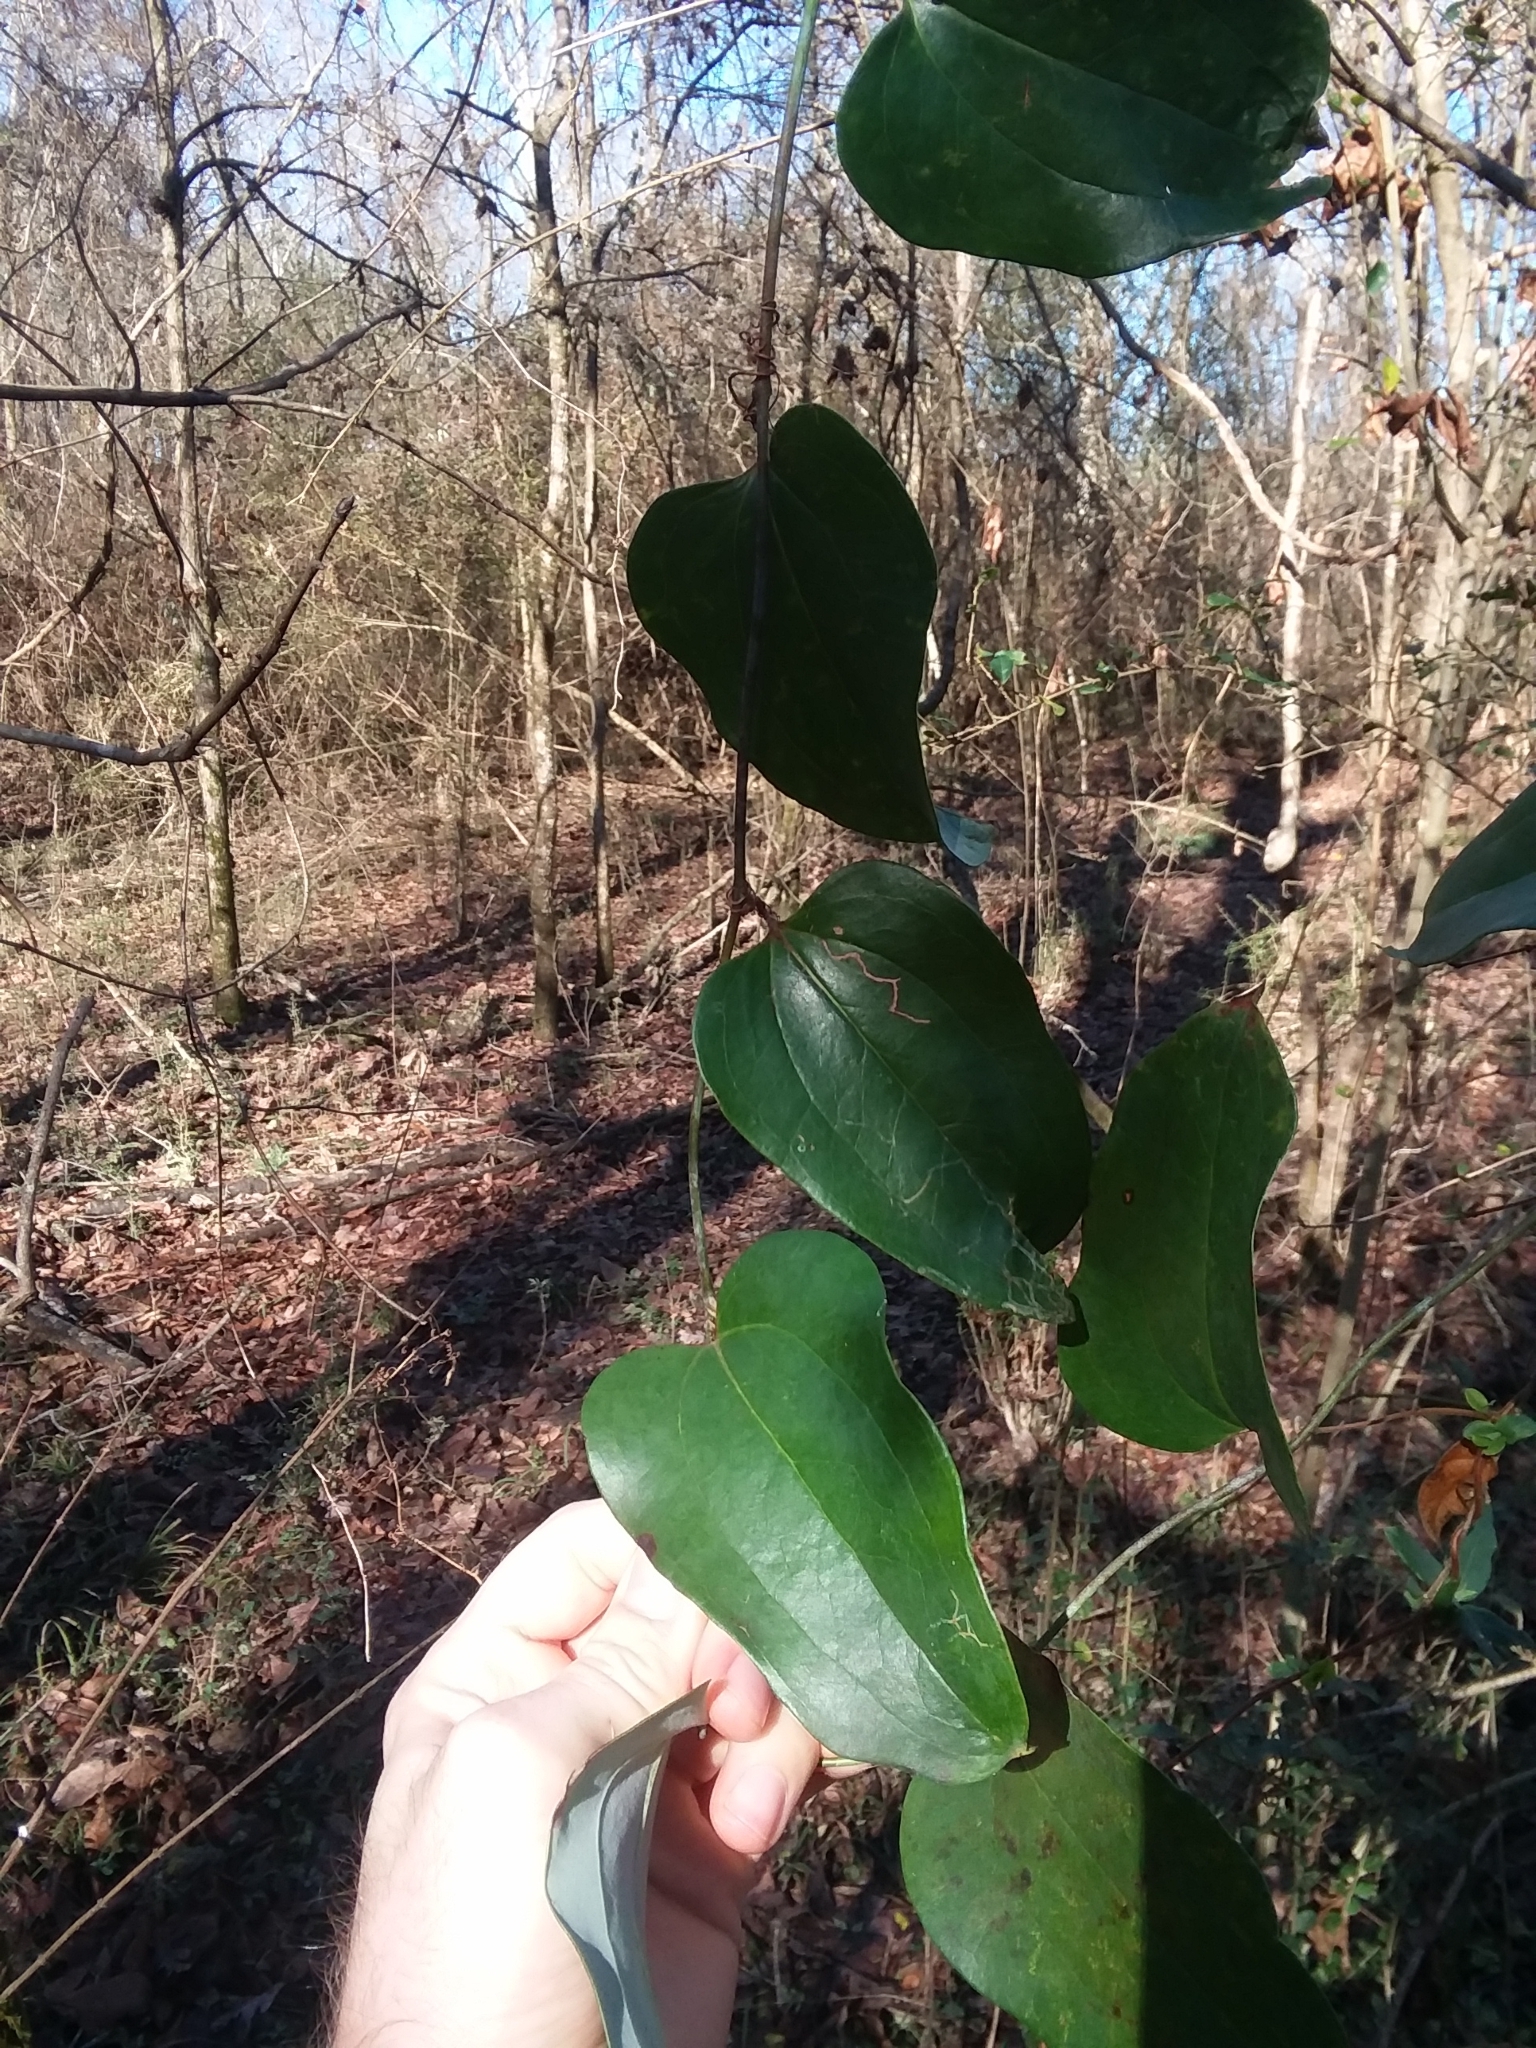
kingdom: Plantae
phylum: Tracheophyta
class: Liliopsida
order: Liliales
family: Smilacaceae
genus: Smilax
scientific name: Smilax glauca
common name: Cat greenbrier
